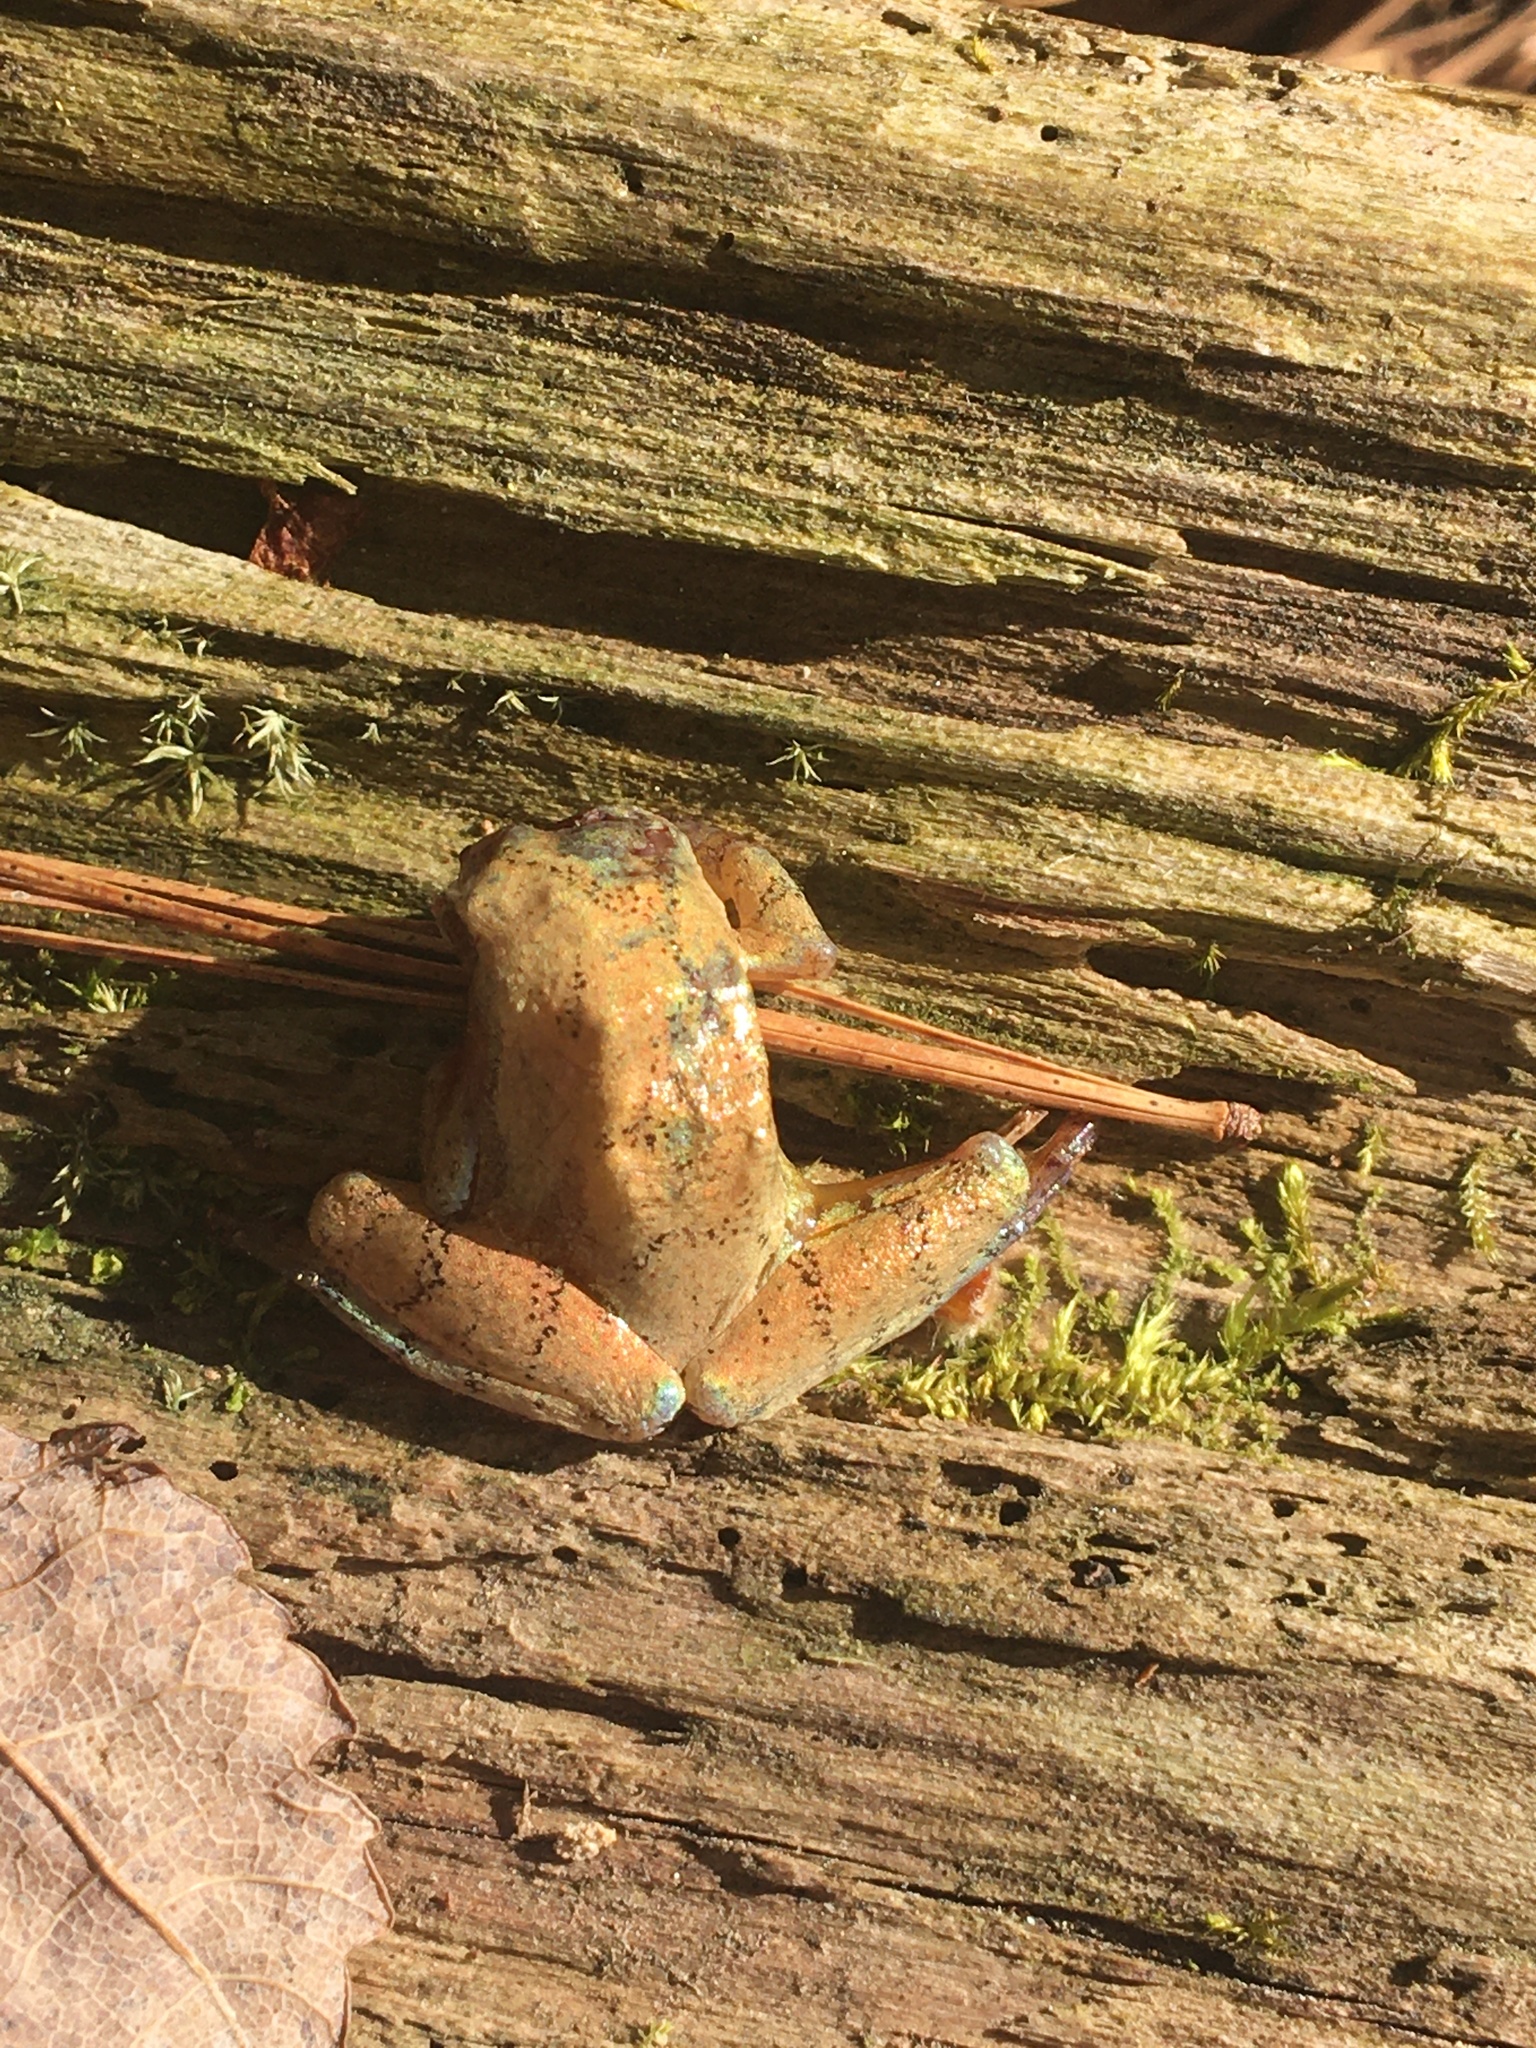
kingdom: Animalia
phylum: Chordata
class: Amphibia
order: Anura
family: Hylidae
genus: Pseudacris
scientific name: Pseudacris crucifer
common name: Spring peeper
